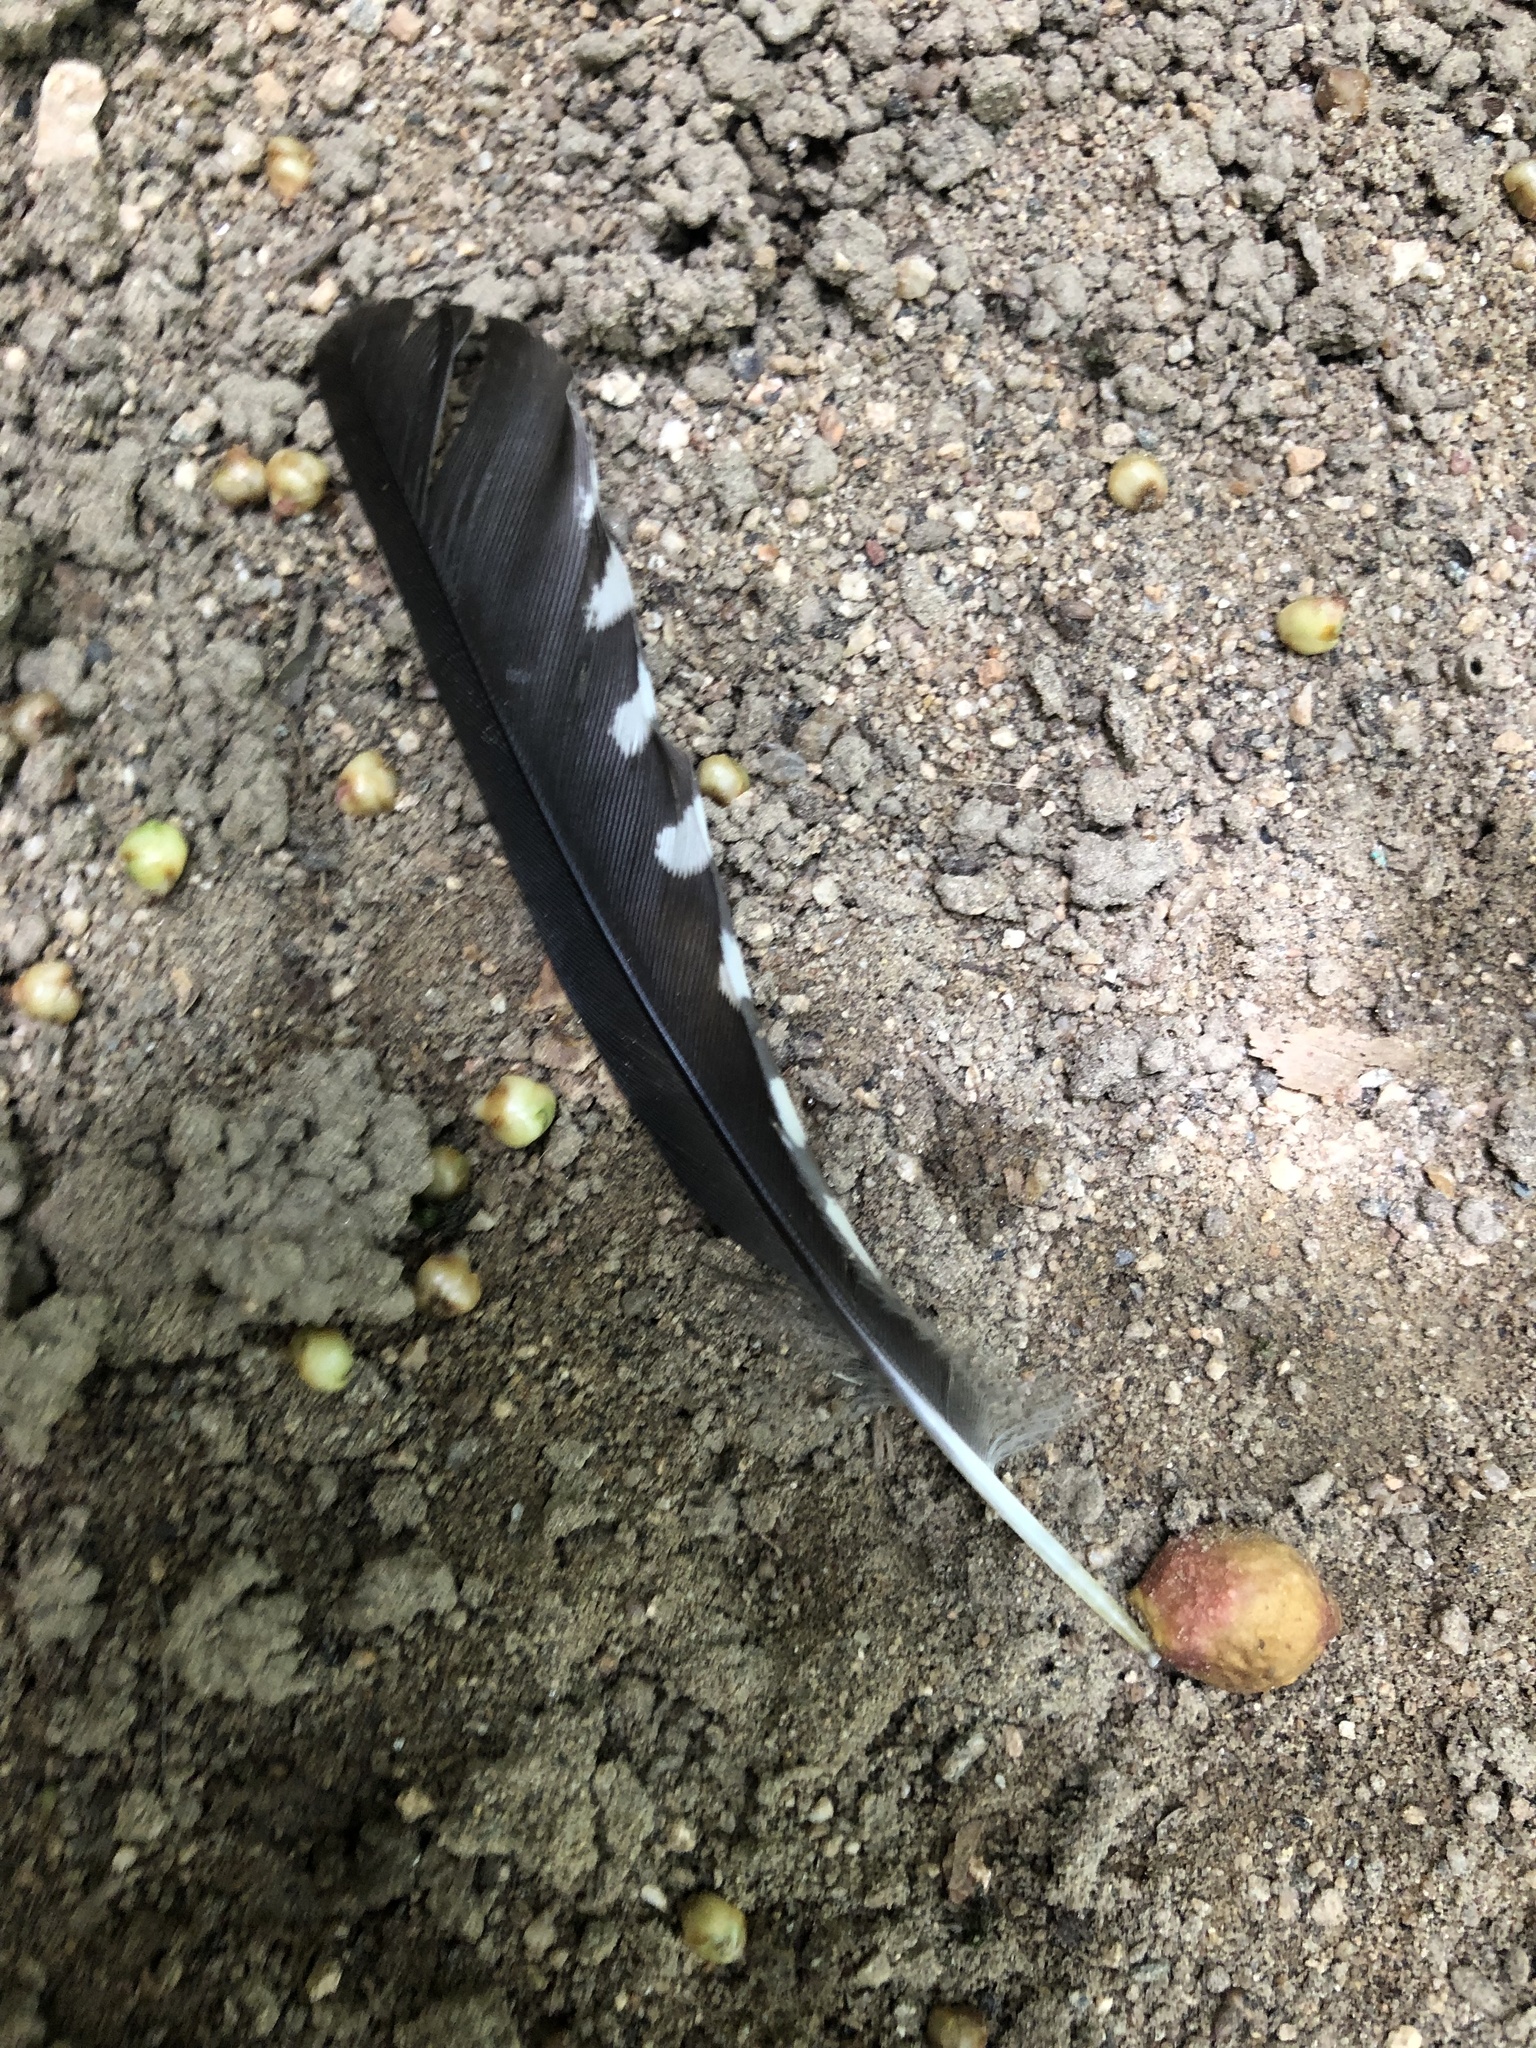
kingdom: Animalia
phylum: Chordata
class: Aves
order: Piciformes
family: Picidae
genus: Melanerpes
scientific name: Melanerpes santacruzi
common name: Velasquez's woodpecker
